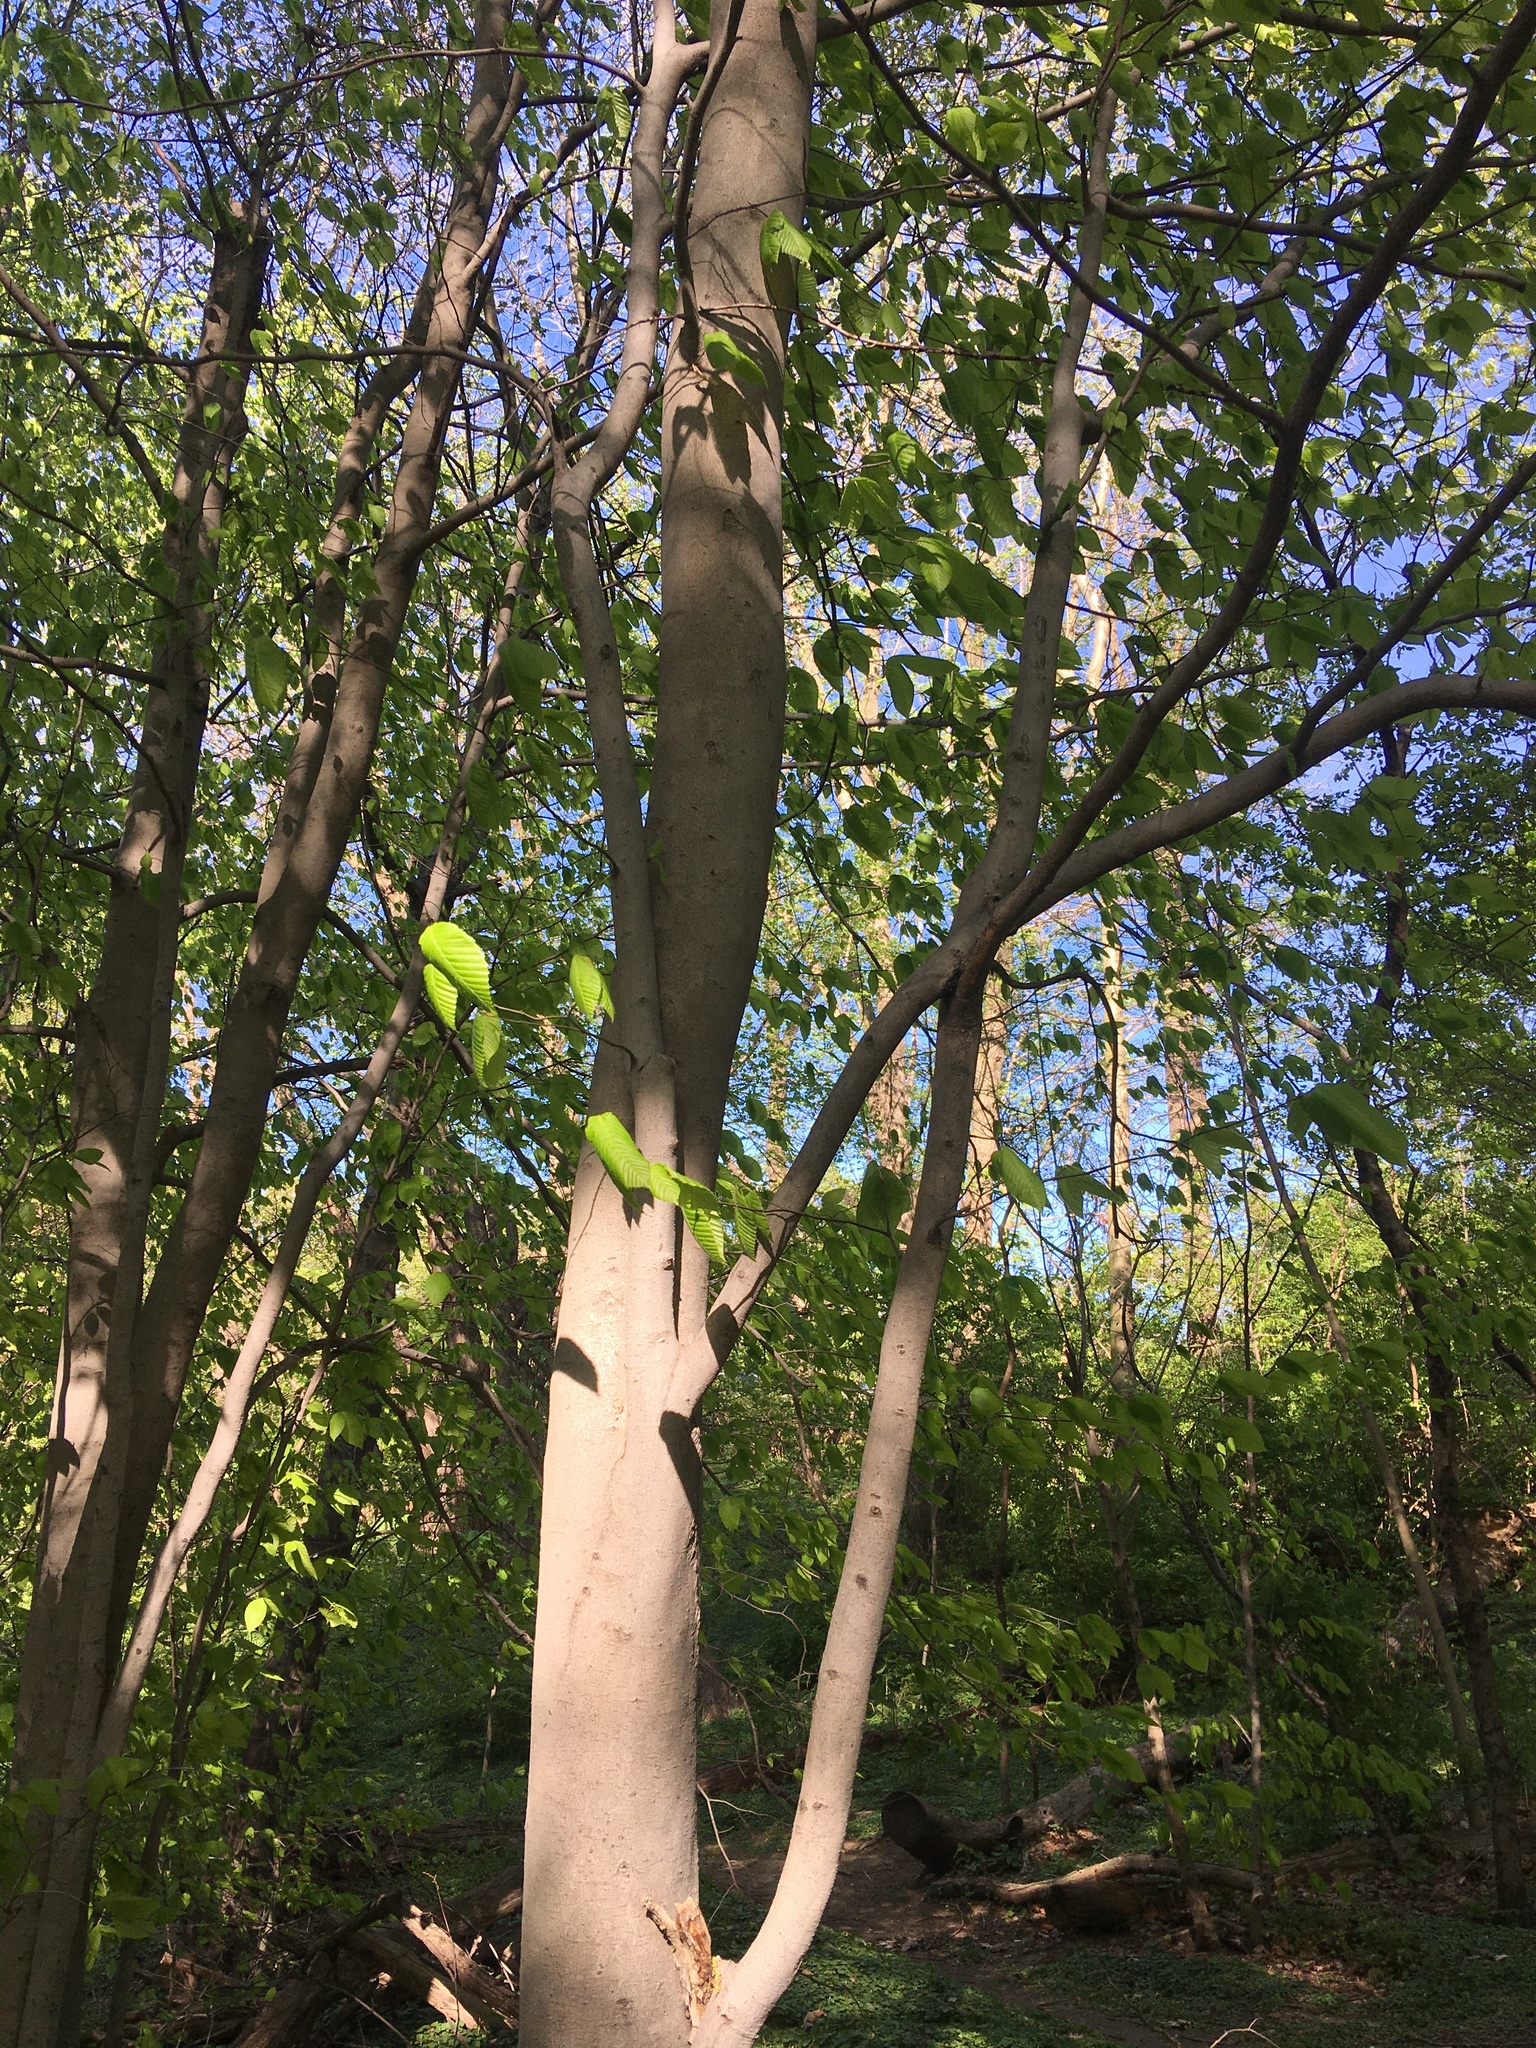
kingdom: Plantae
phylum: Tracheophyta
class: Magnoliopsida
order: Fagales
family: Fagaceae
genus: Fagus
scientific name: Fagus grandifolia
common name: American beech
